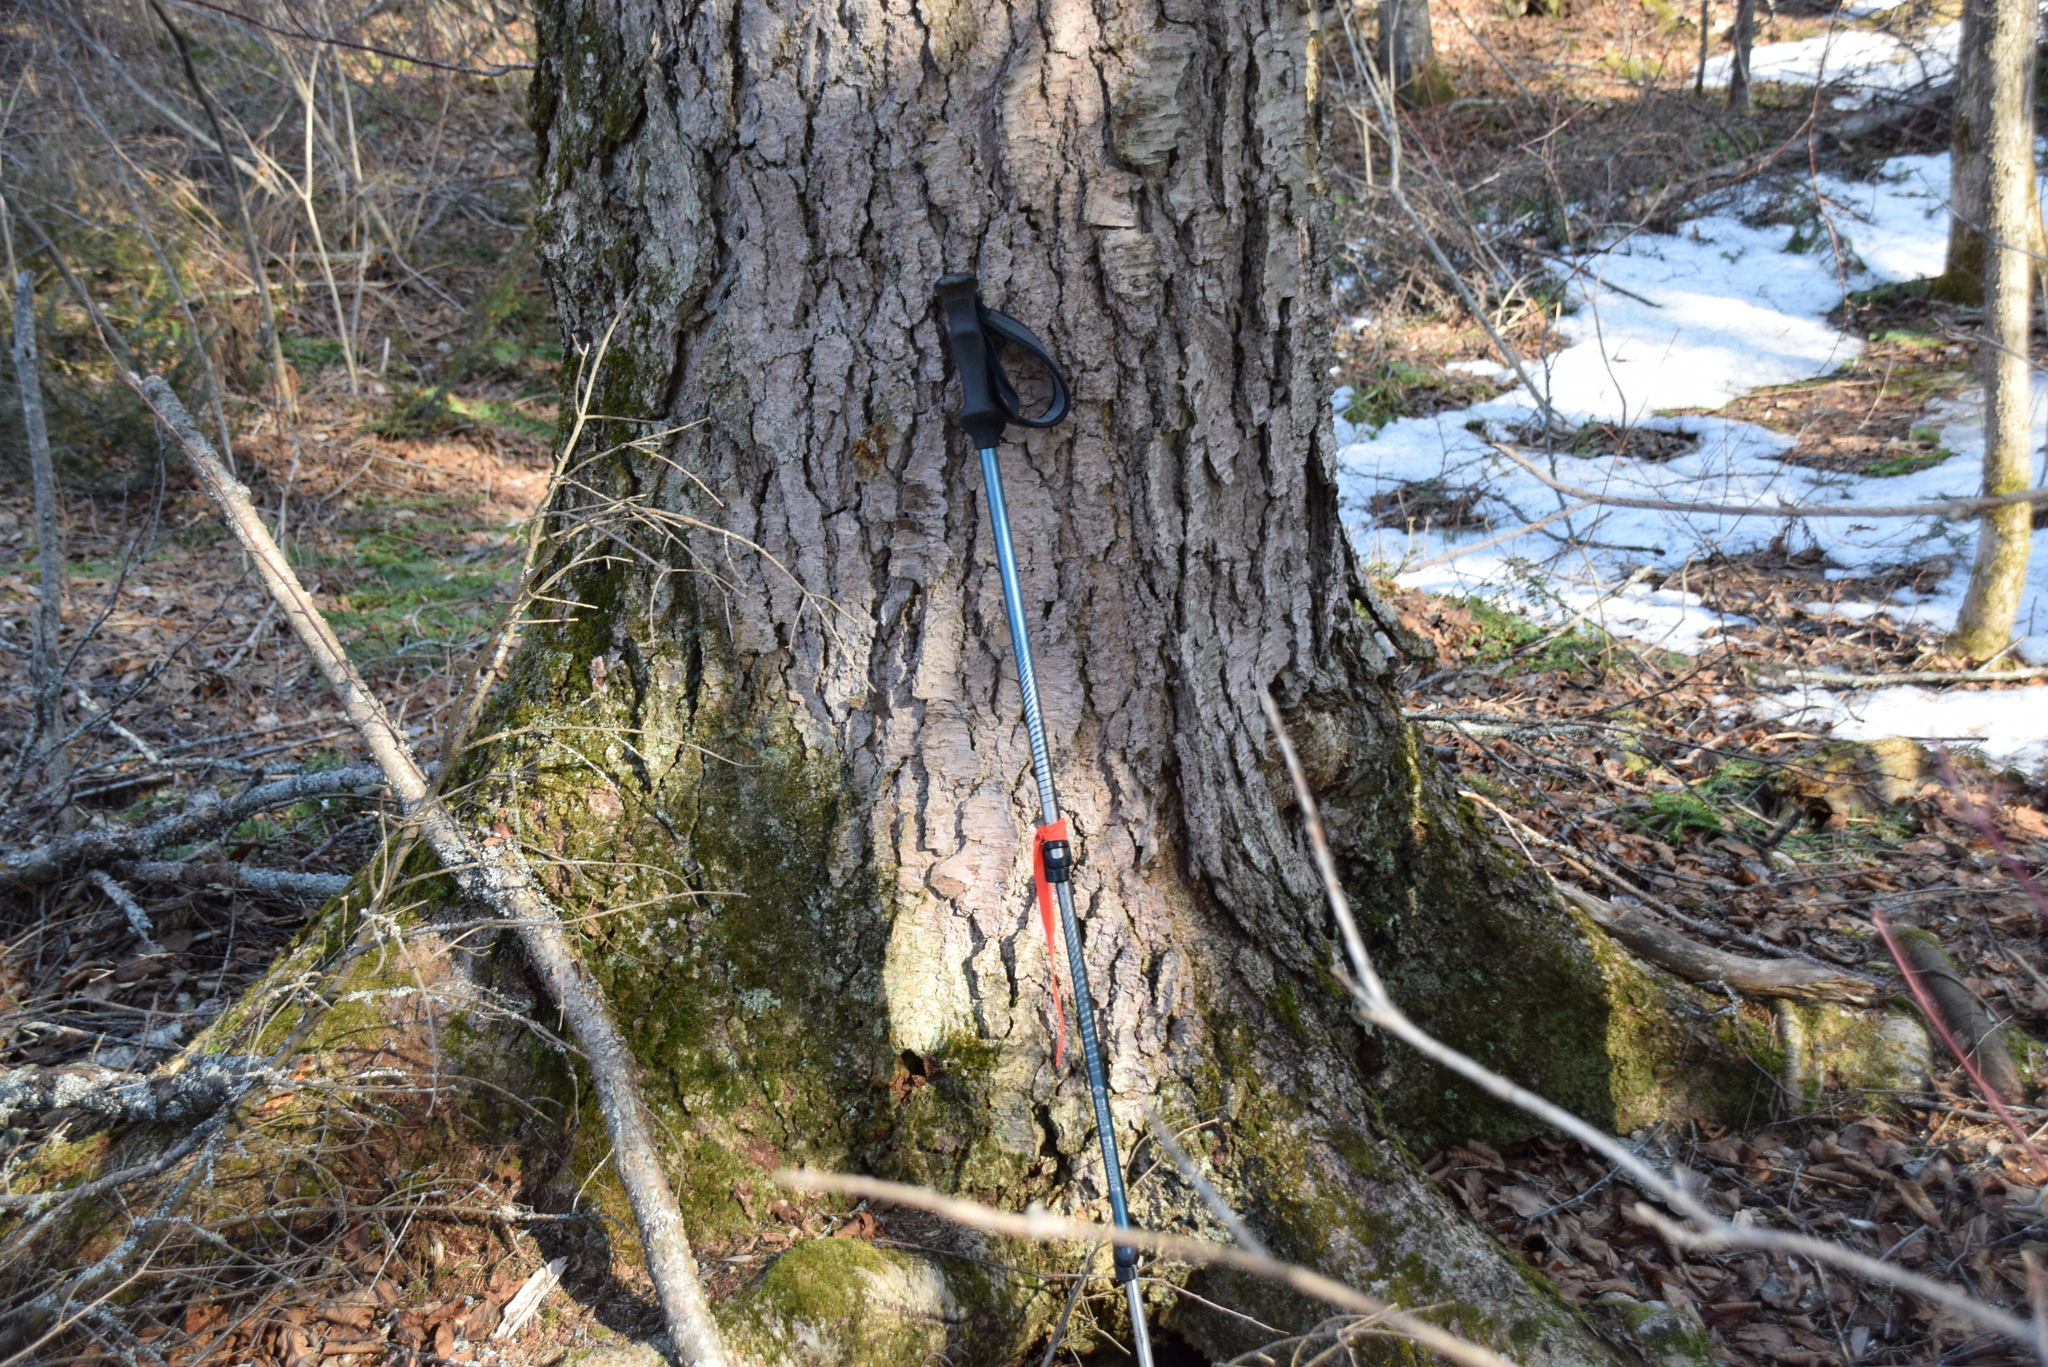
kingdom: Plantae
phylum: Tracheophyta
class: Magnoliopsida
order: Fagales
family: Betulaceae
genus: Betula
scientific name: Betula alleghaniensis
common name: Yellow birch
